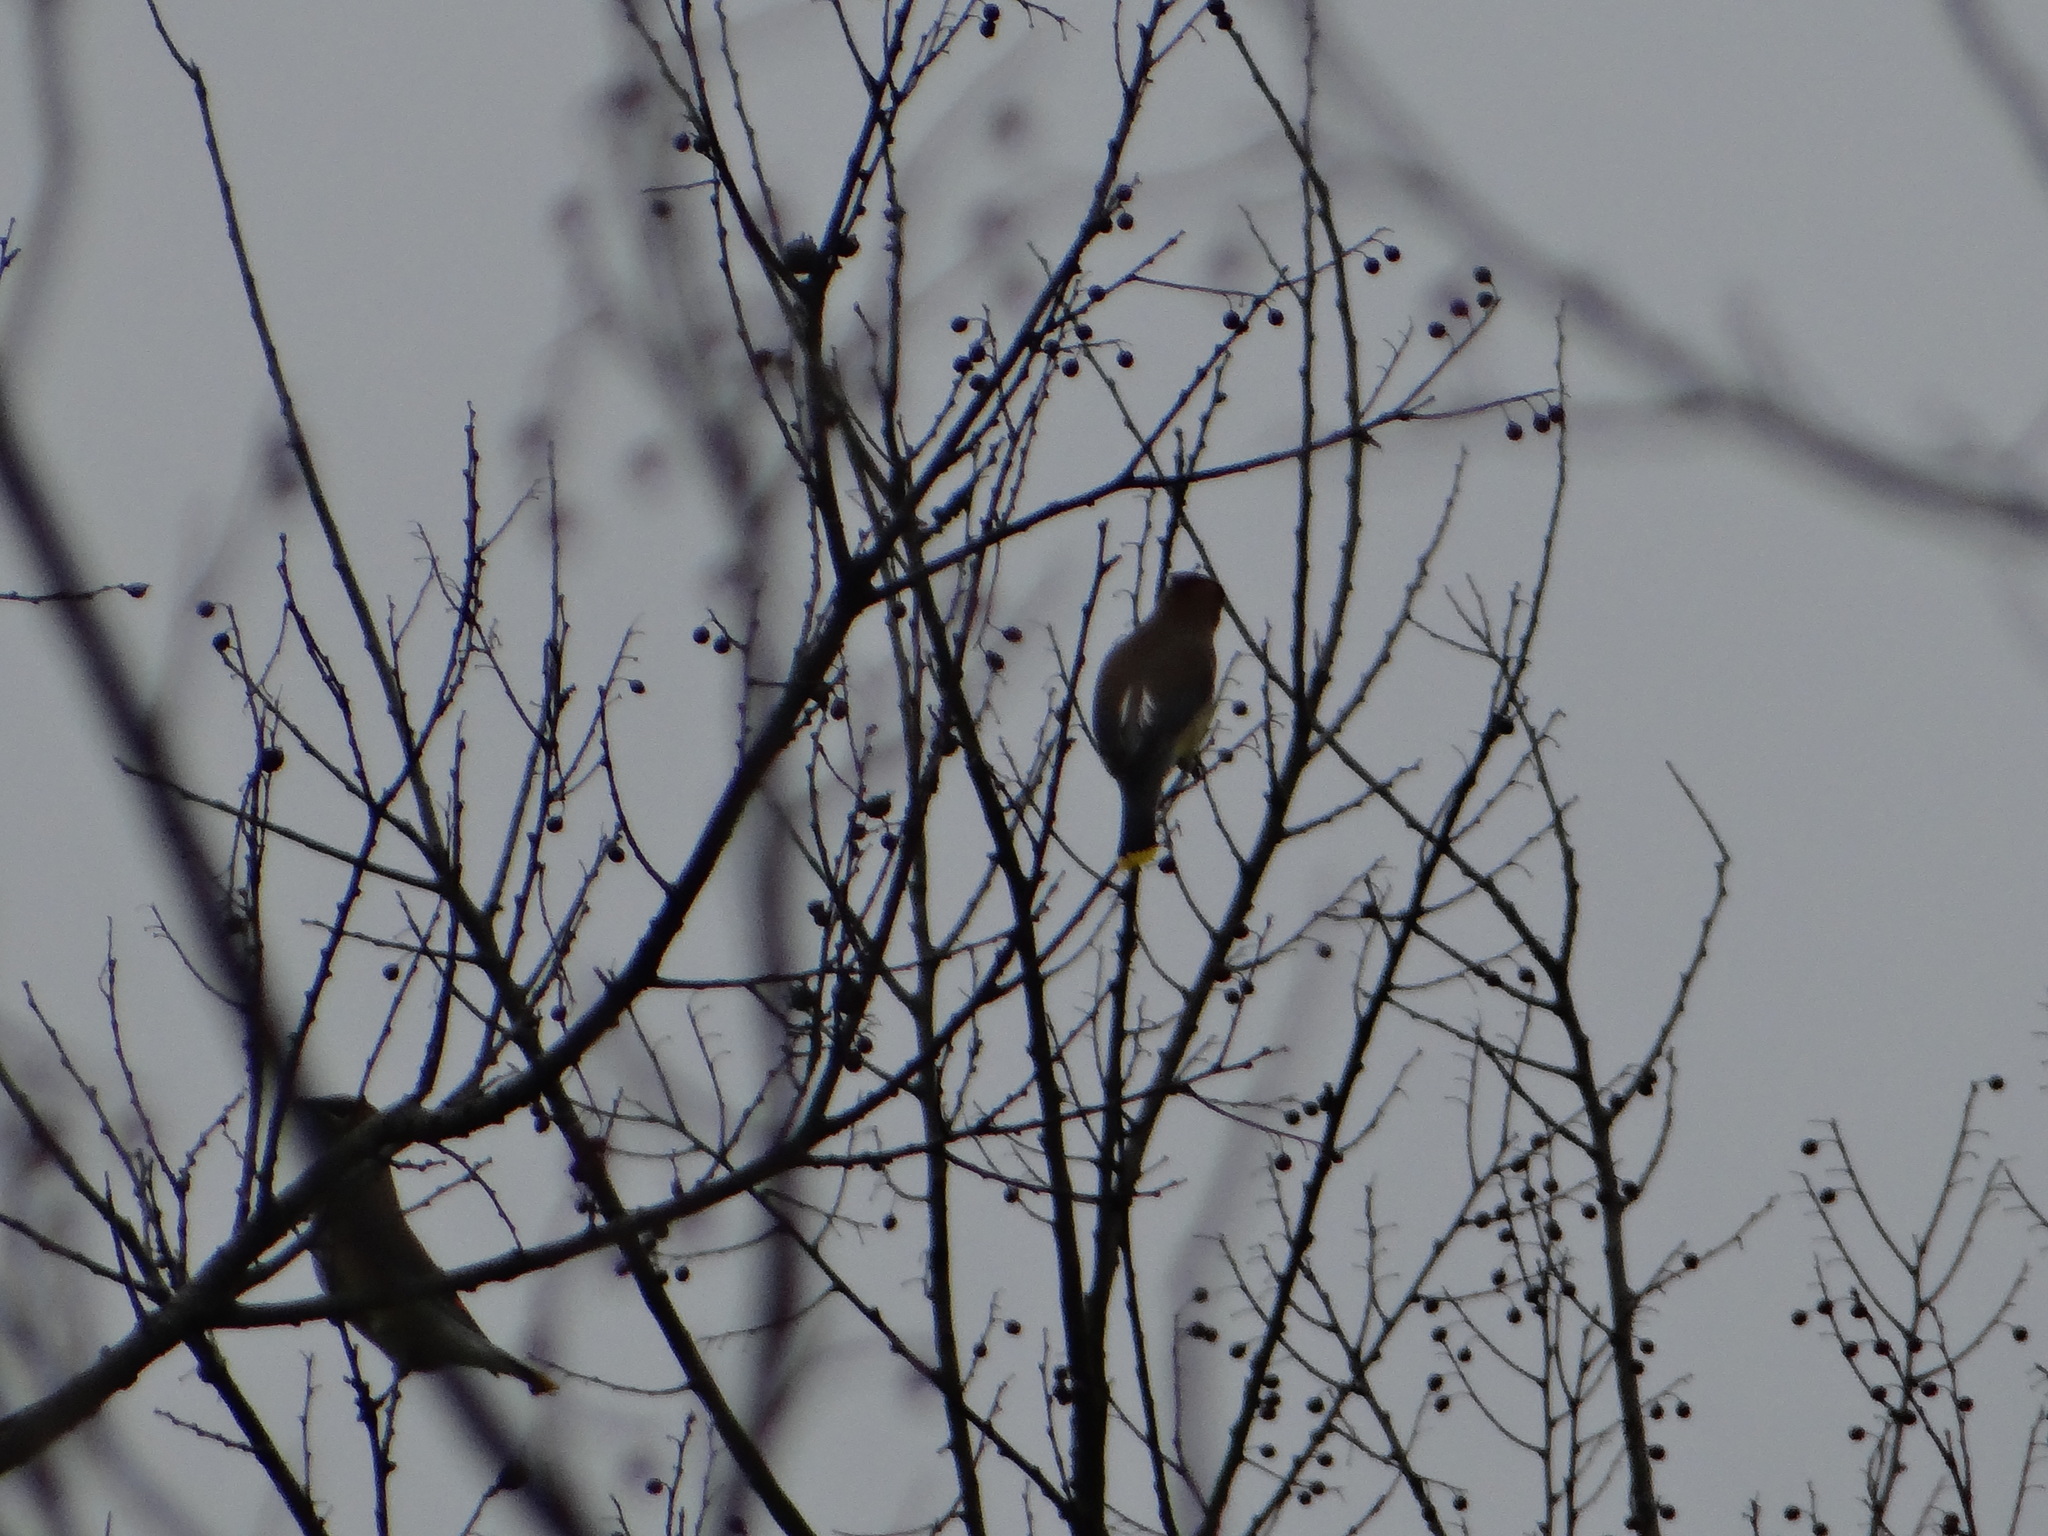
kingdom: Animalia
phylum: Chordata
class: Aves
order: Passeriformes
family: Bombycillidae
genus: Bombycilla
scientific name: Bombycilla cedrorum
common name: Cedar waxwing
